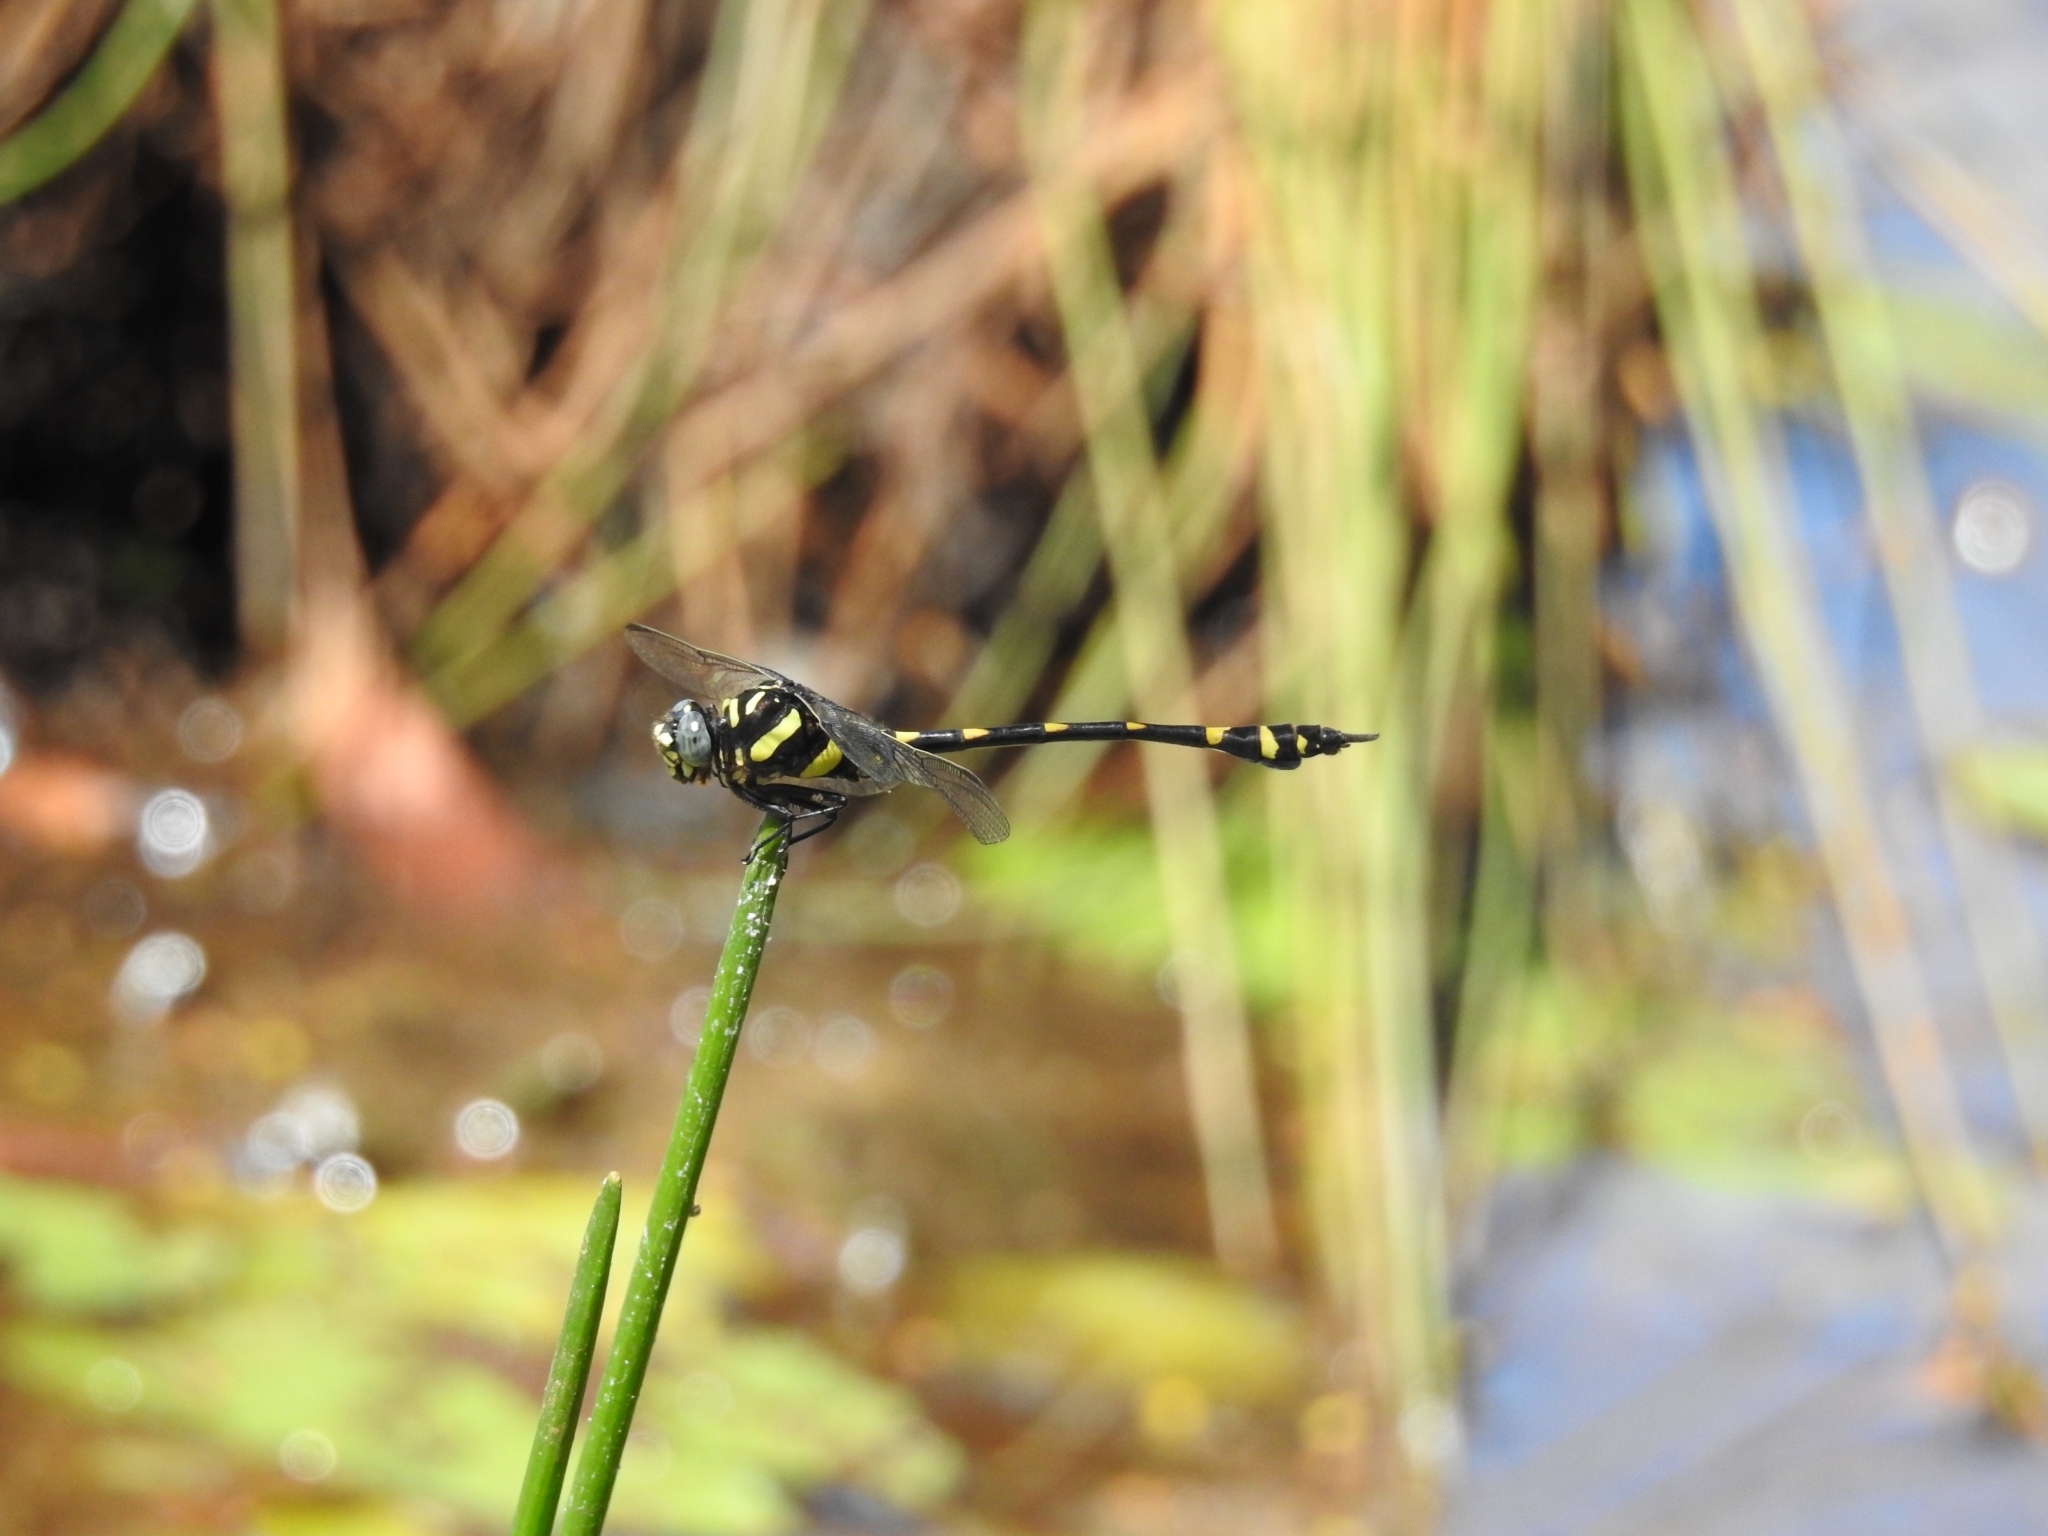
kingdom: Animalia
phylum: Arthropoda
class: Insecta
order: Odonata
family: Gomphidae
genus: Ictinogomphus
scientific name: Ictinogomphus rapax
